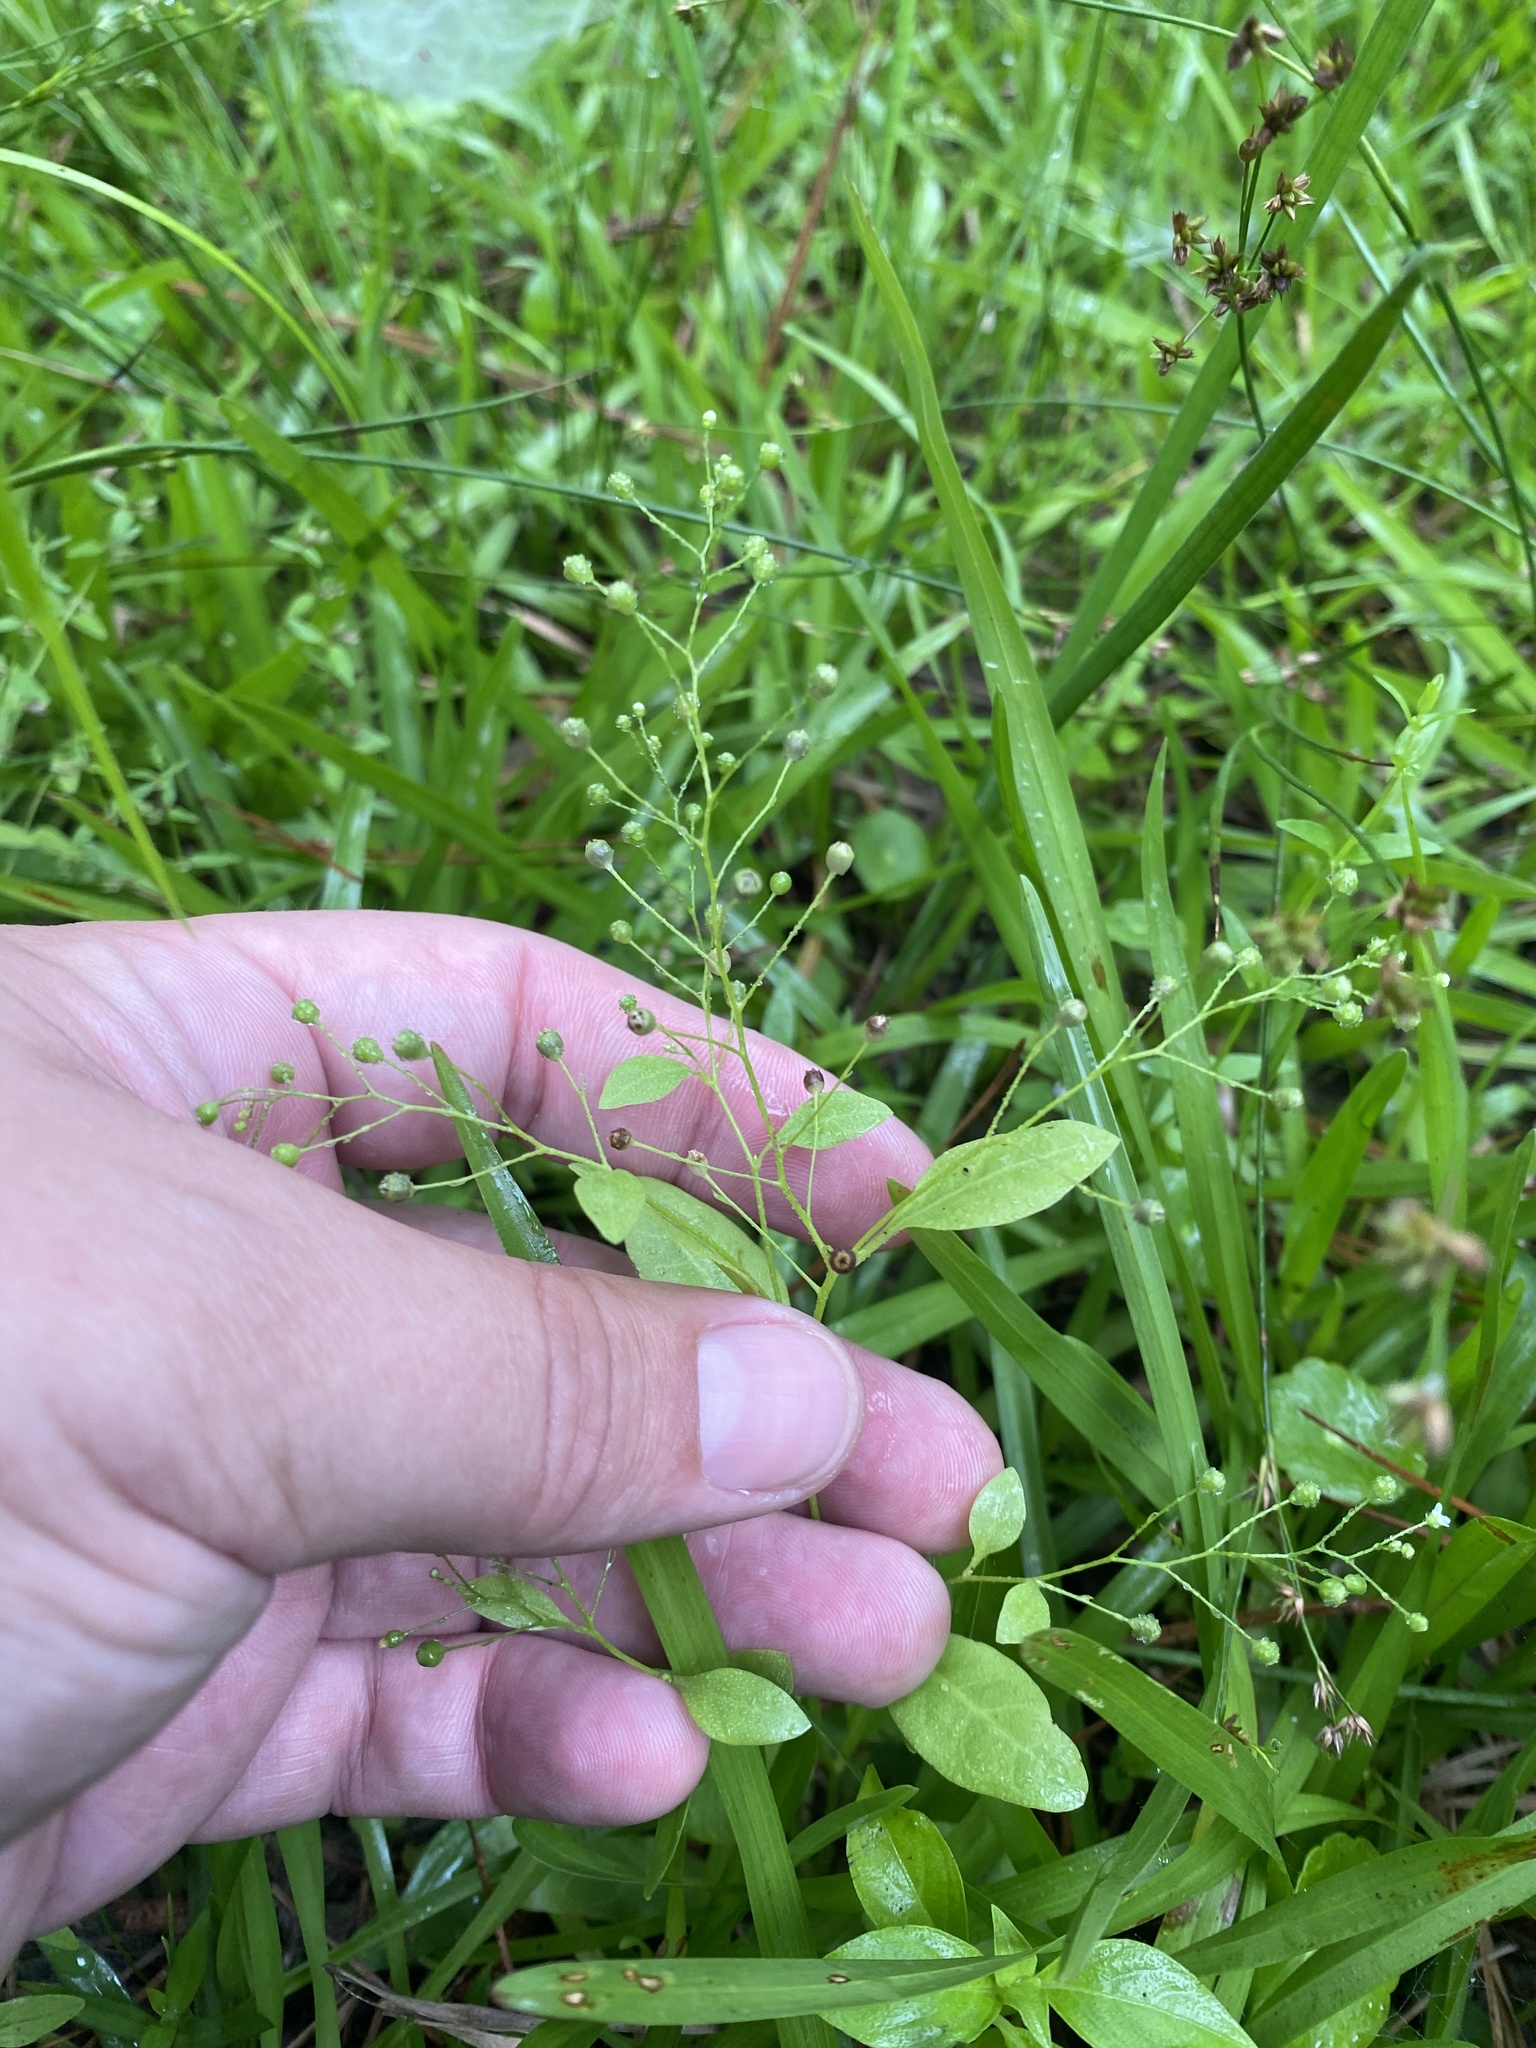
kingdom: Plantae
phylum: Tracheophyta
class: Magnoliopsida
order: Ericales
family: Primulaceae
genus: Samolus
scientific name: Samolus parviflorus
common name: False water pimpernel
